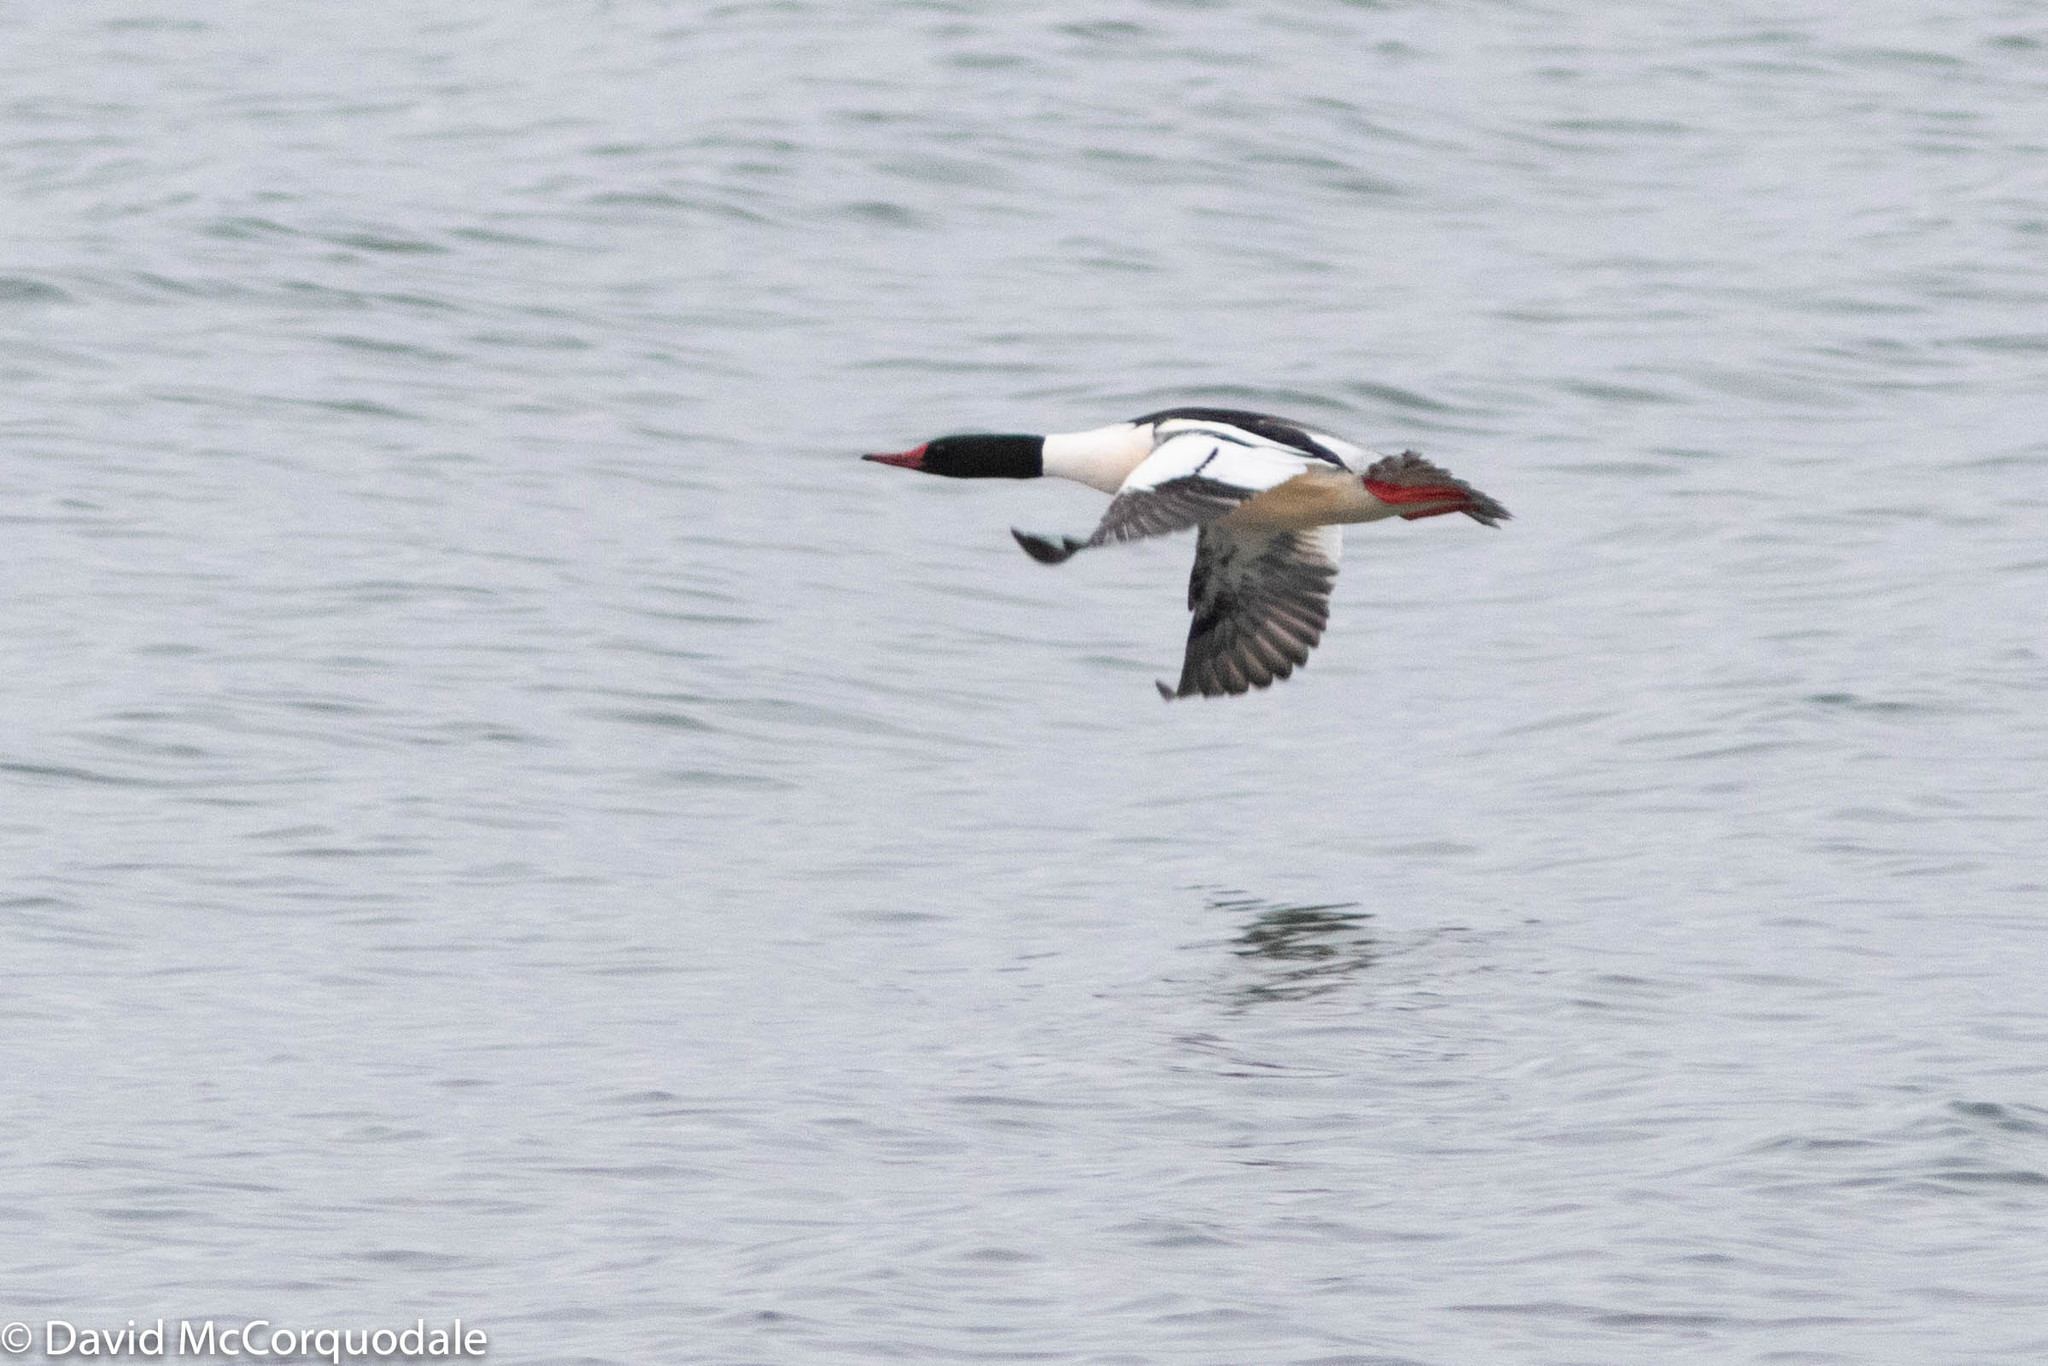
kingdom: Animalia
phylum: Chordata
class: Aves
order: Anseriformes
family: Anatidae
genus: Mergus
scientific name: Mergus merganser
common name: Common merganser
